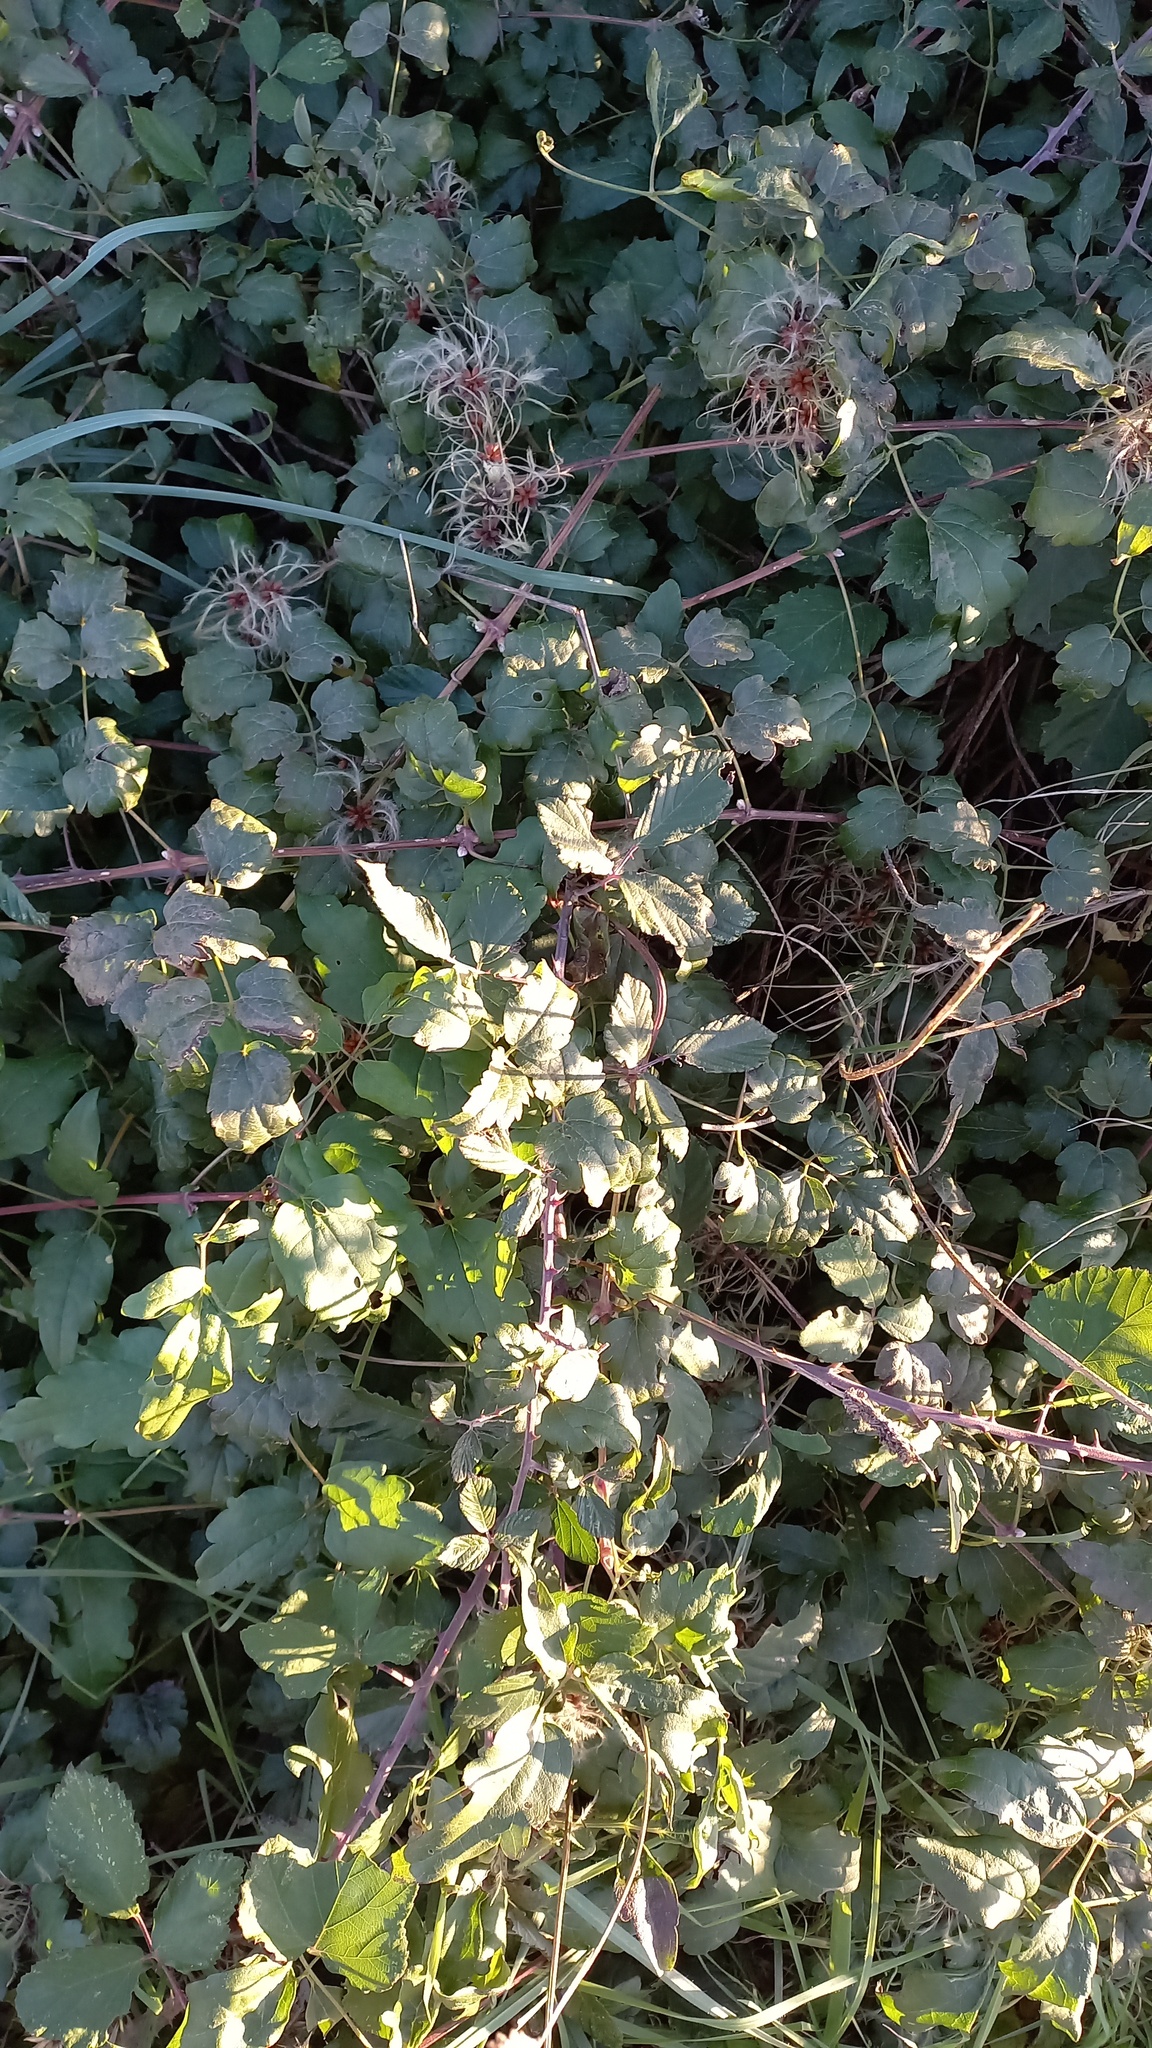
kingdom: Plantae
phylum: Tracheophyta
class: Magnoliopsida
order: Ranunculales
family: Ranunculaceae
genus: Clematis
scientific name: Clematis vitalba
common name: Evergreen clematis
